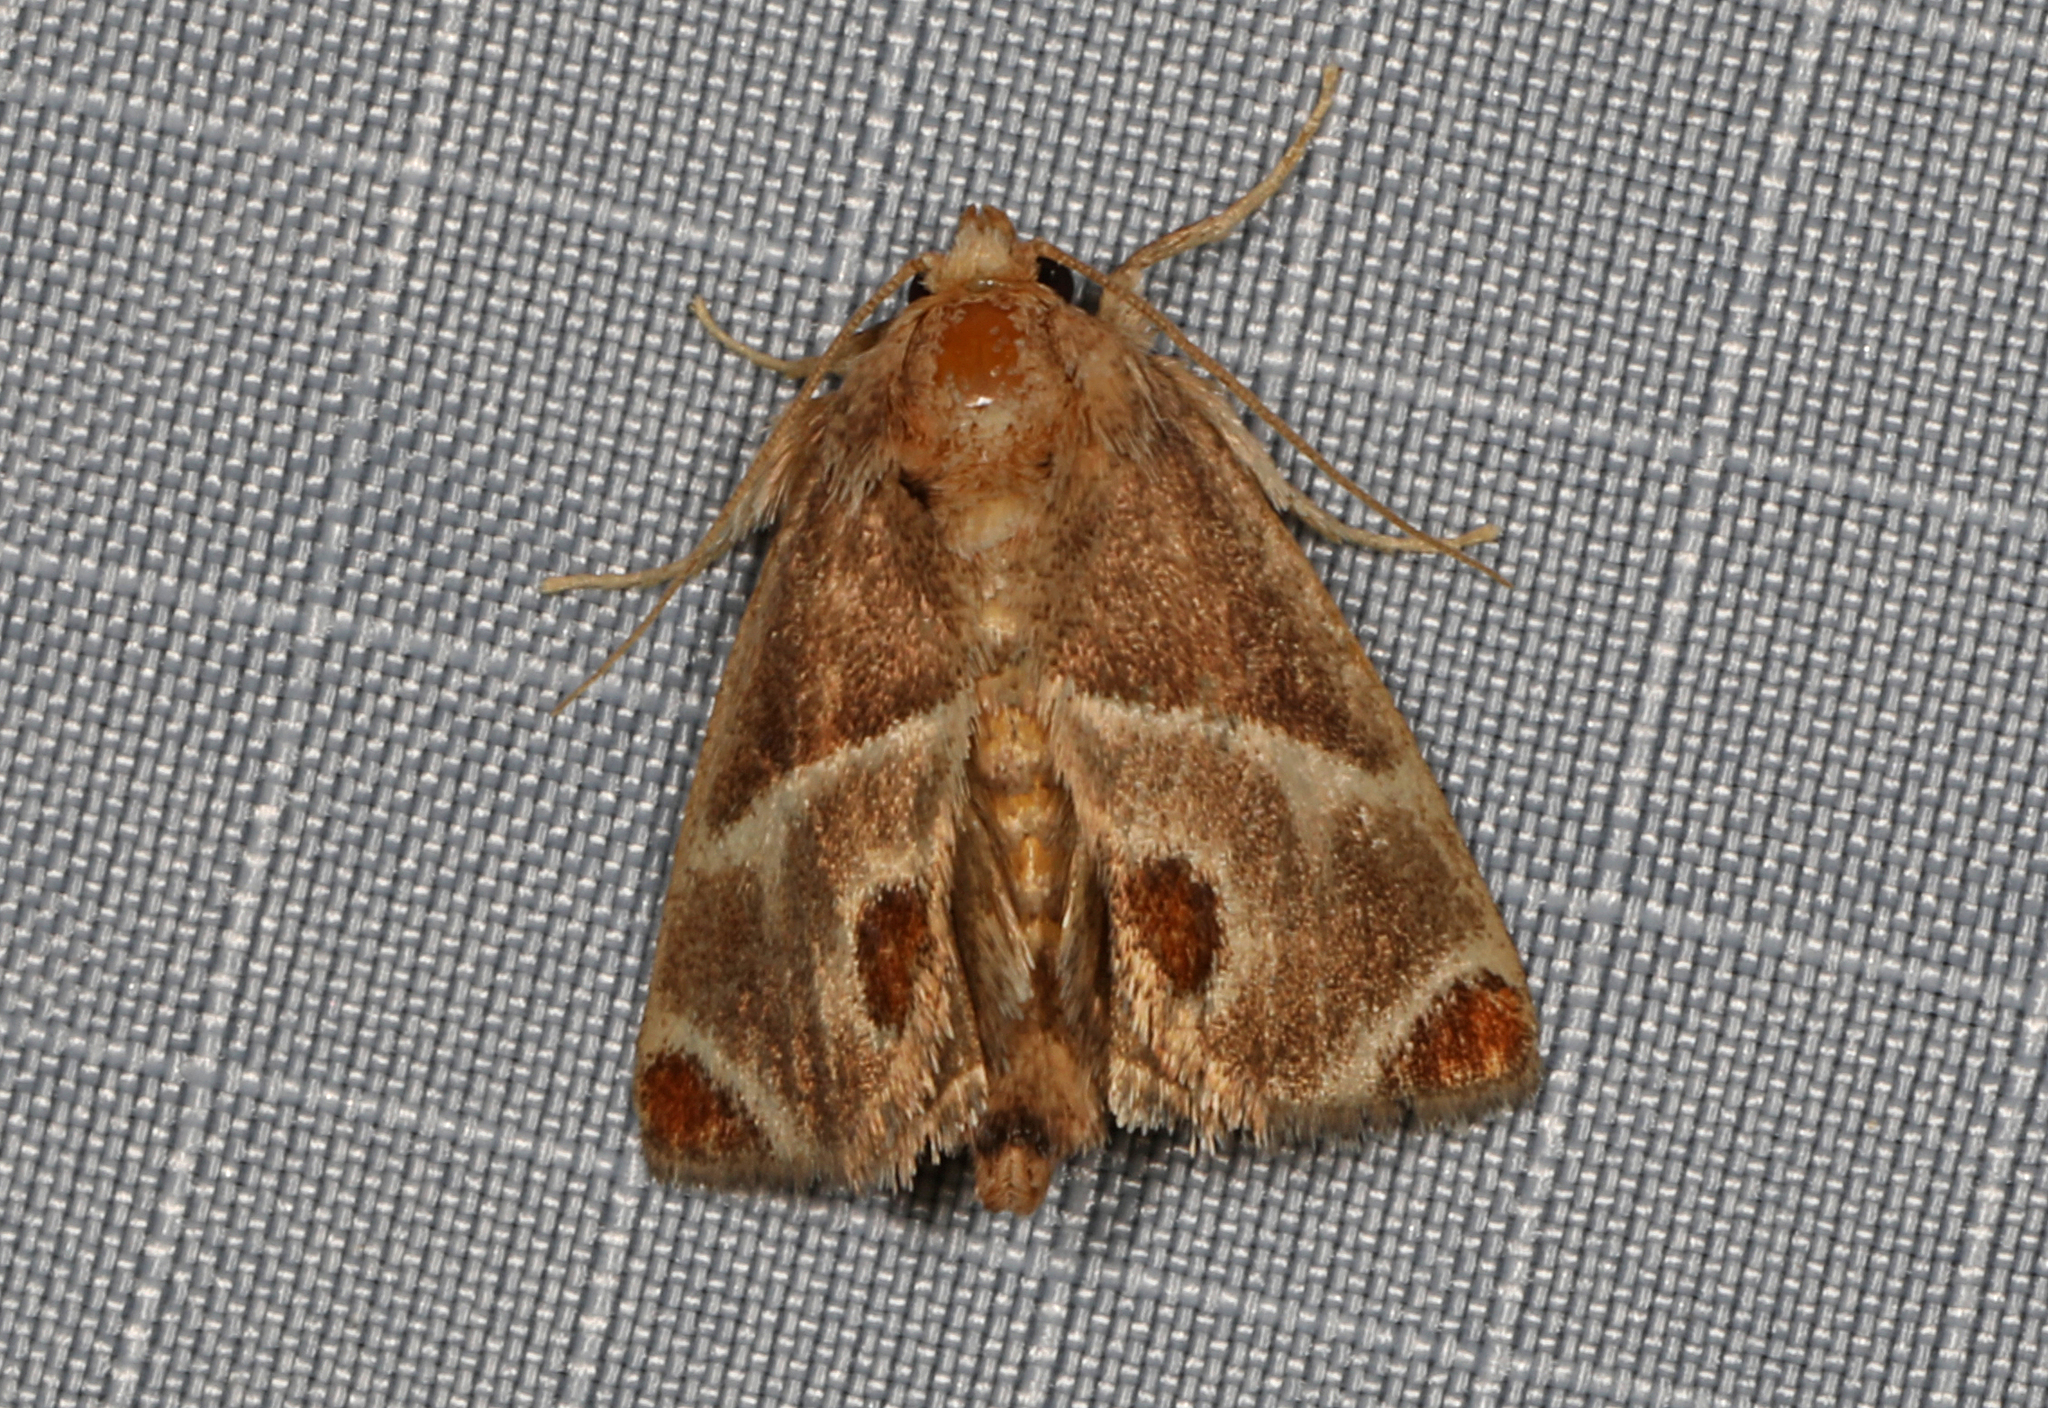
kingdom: Animalia
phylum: Arthropoda
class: Insecta
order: Lepidoptera
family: Limacodidae
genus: Apoda
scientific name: Apoda biguttata
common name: Shagreened slug moth
